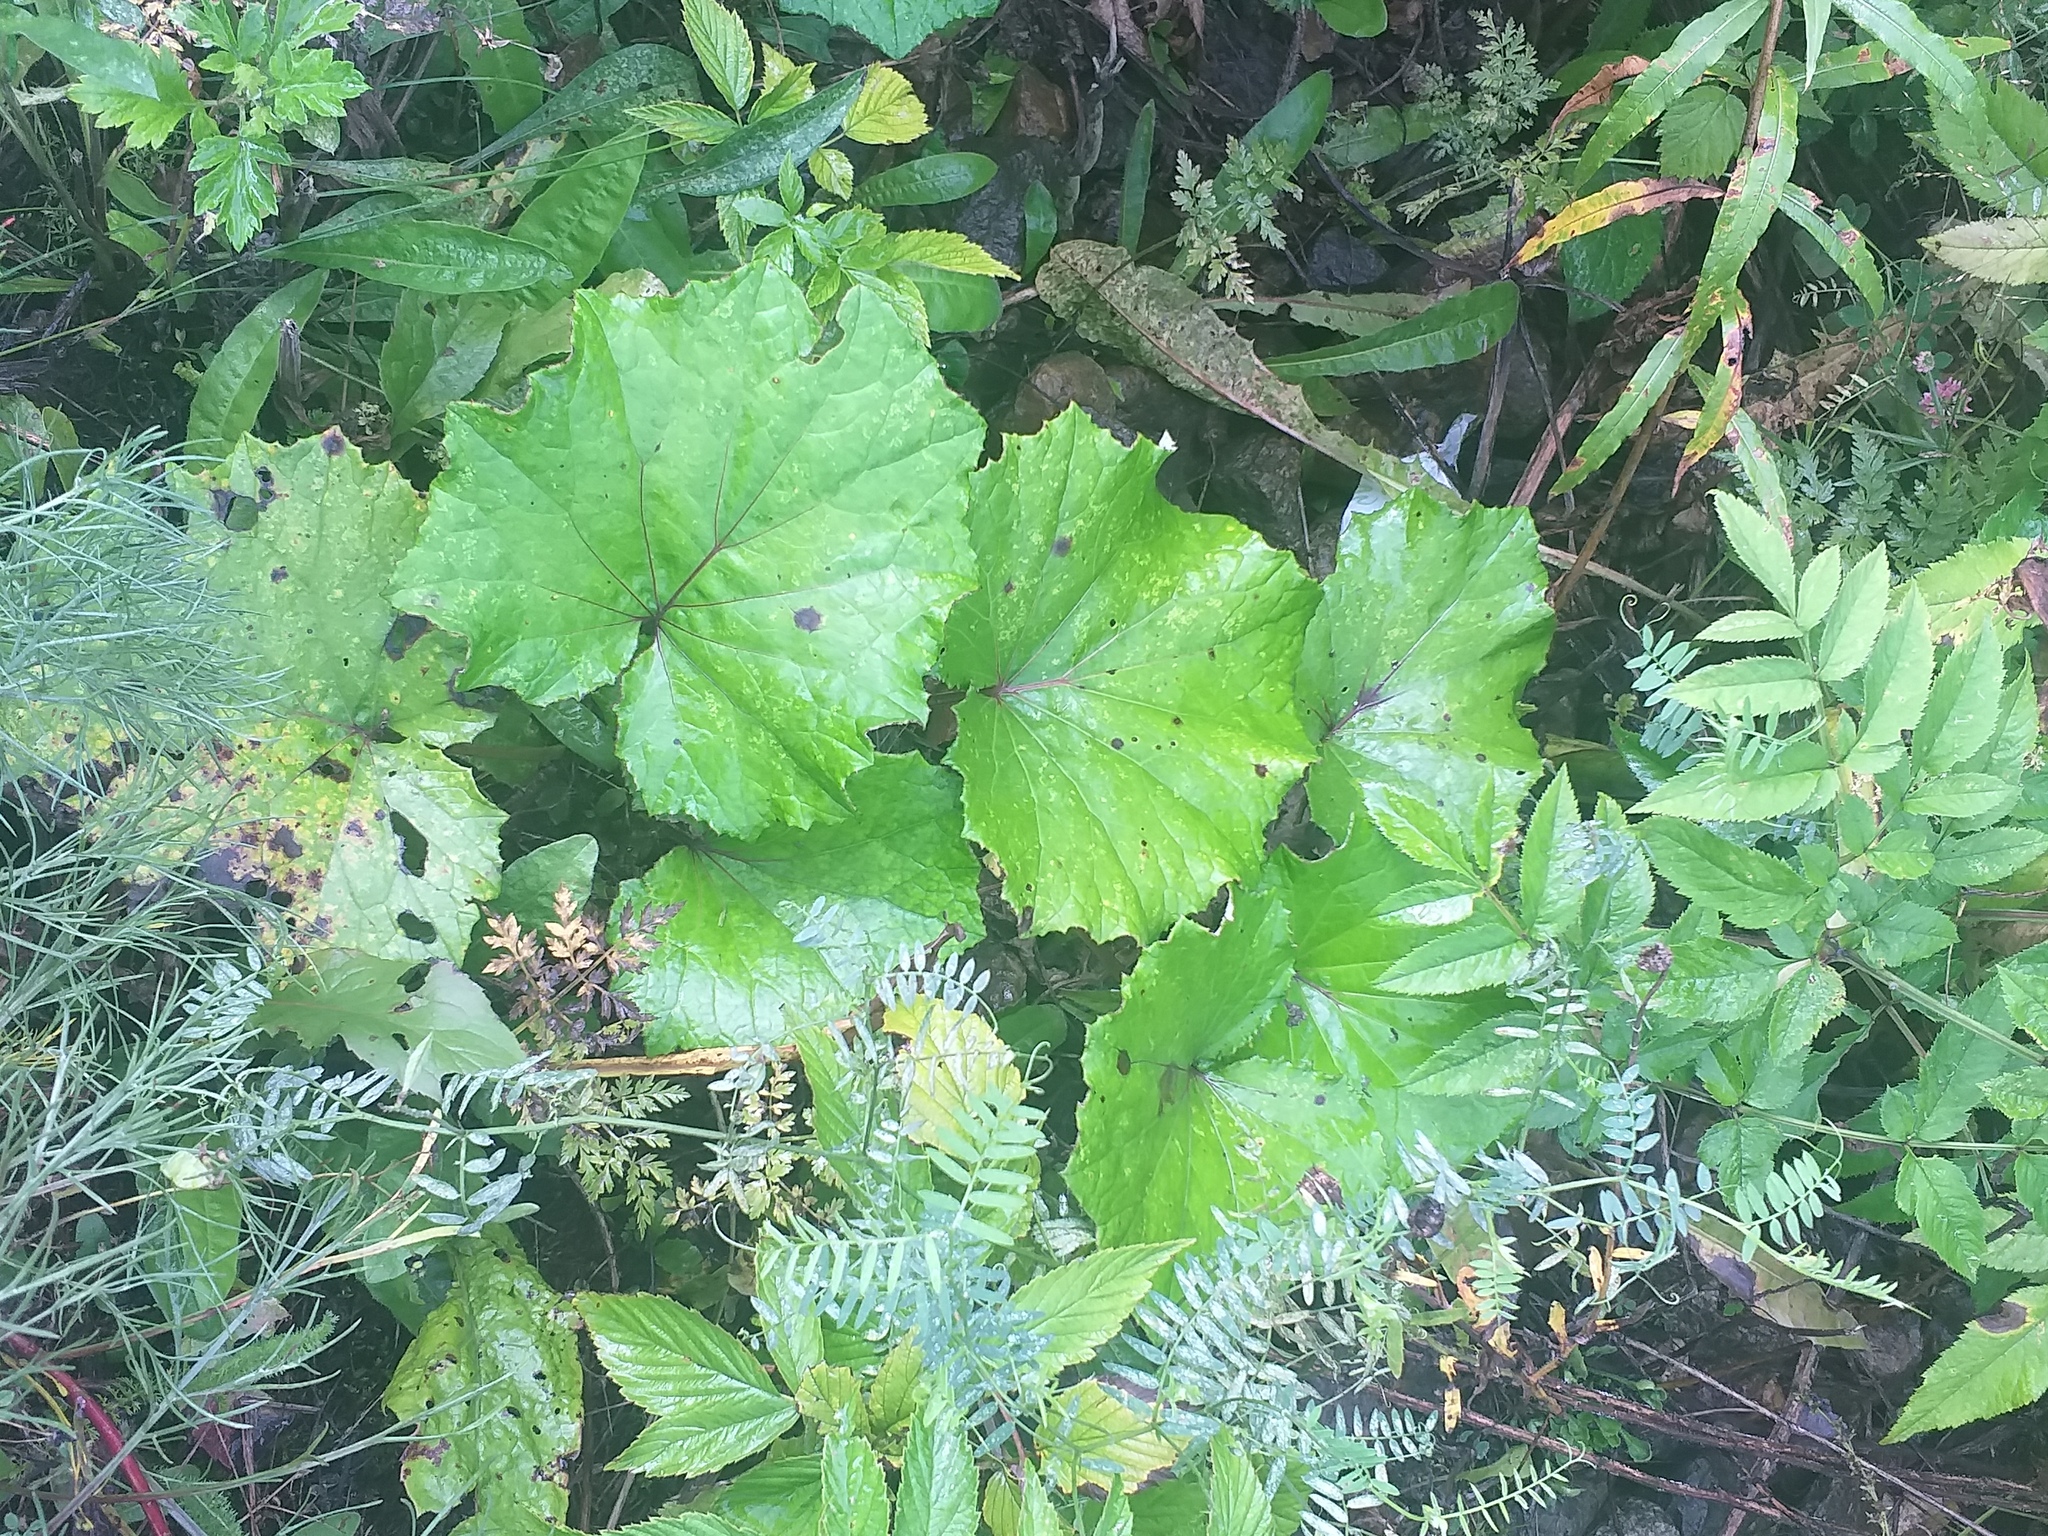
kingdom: Plantae
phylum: Tracheophyta
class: Magnoliopsida
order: Asterales
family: Asteraceae
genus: Tussilago
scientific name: Tussilago farfara
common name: Coltsfoot
